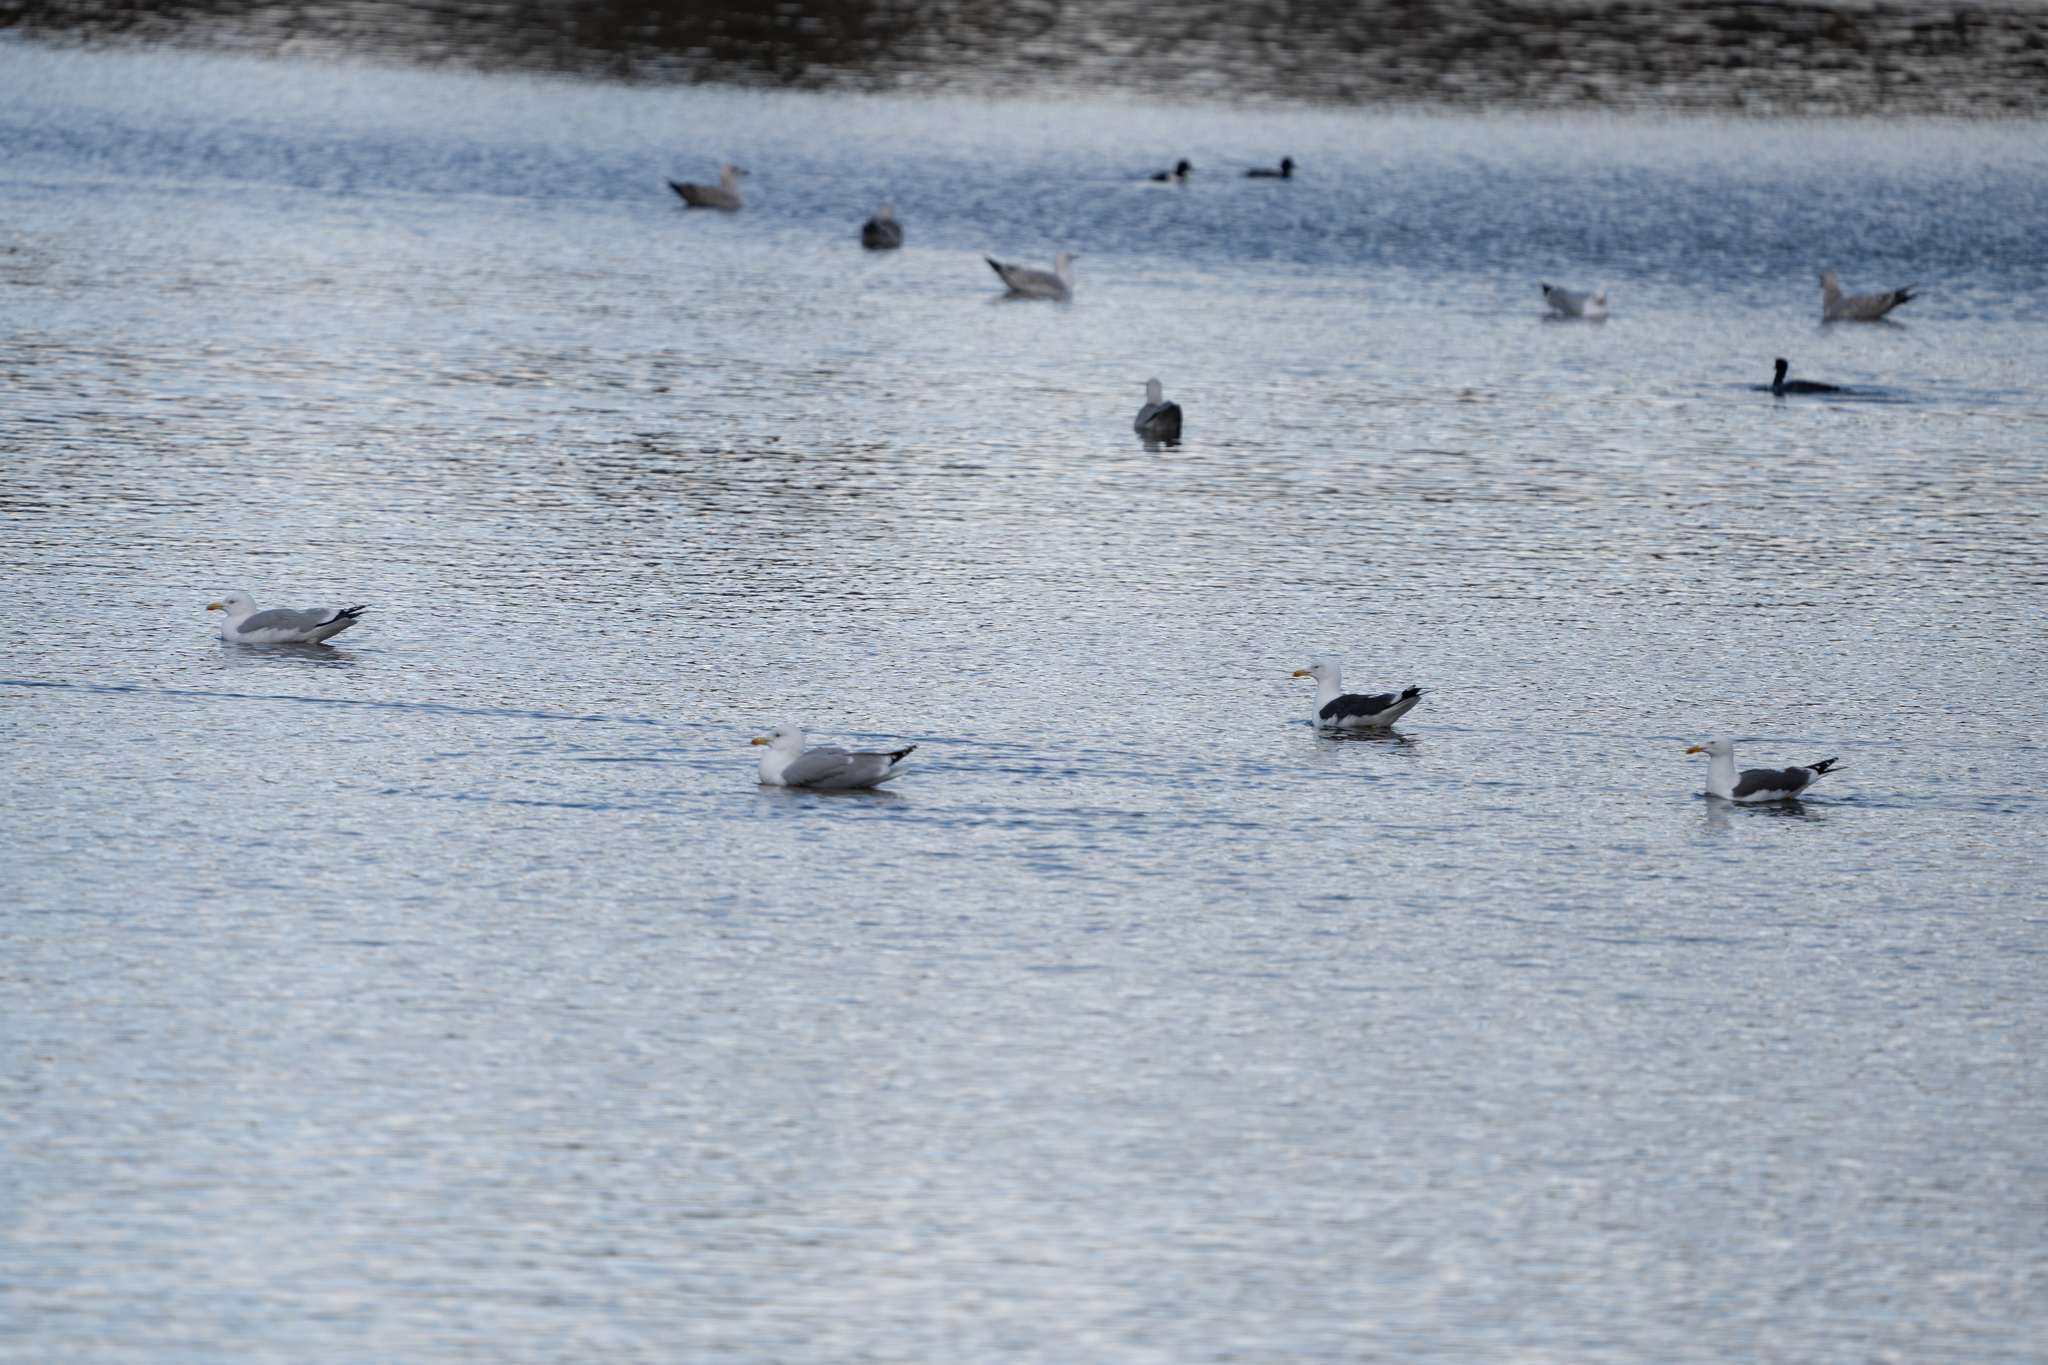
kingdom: Animalia
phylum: Chordata
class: Aves
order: Charadriiformes
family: Laridae
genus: Larus
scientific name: Larus argentatus
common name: Herring gull
